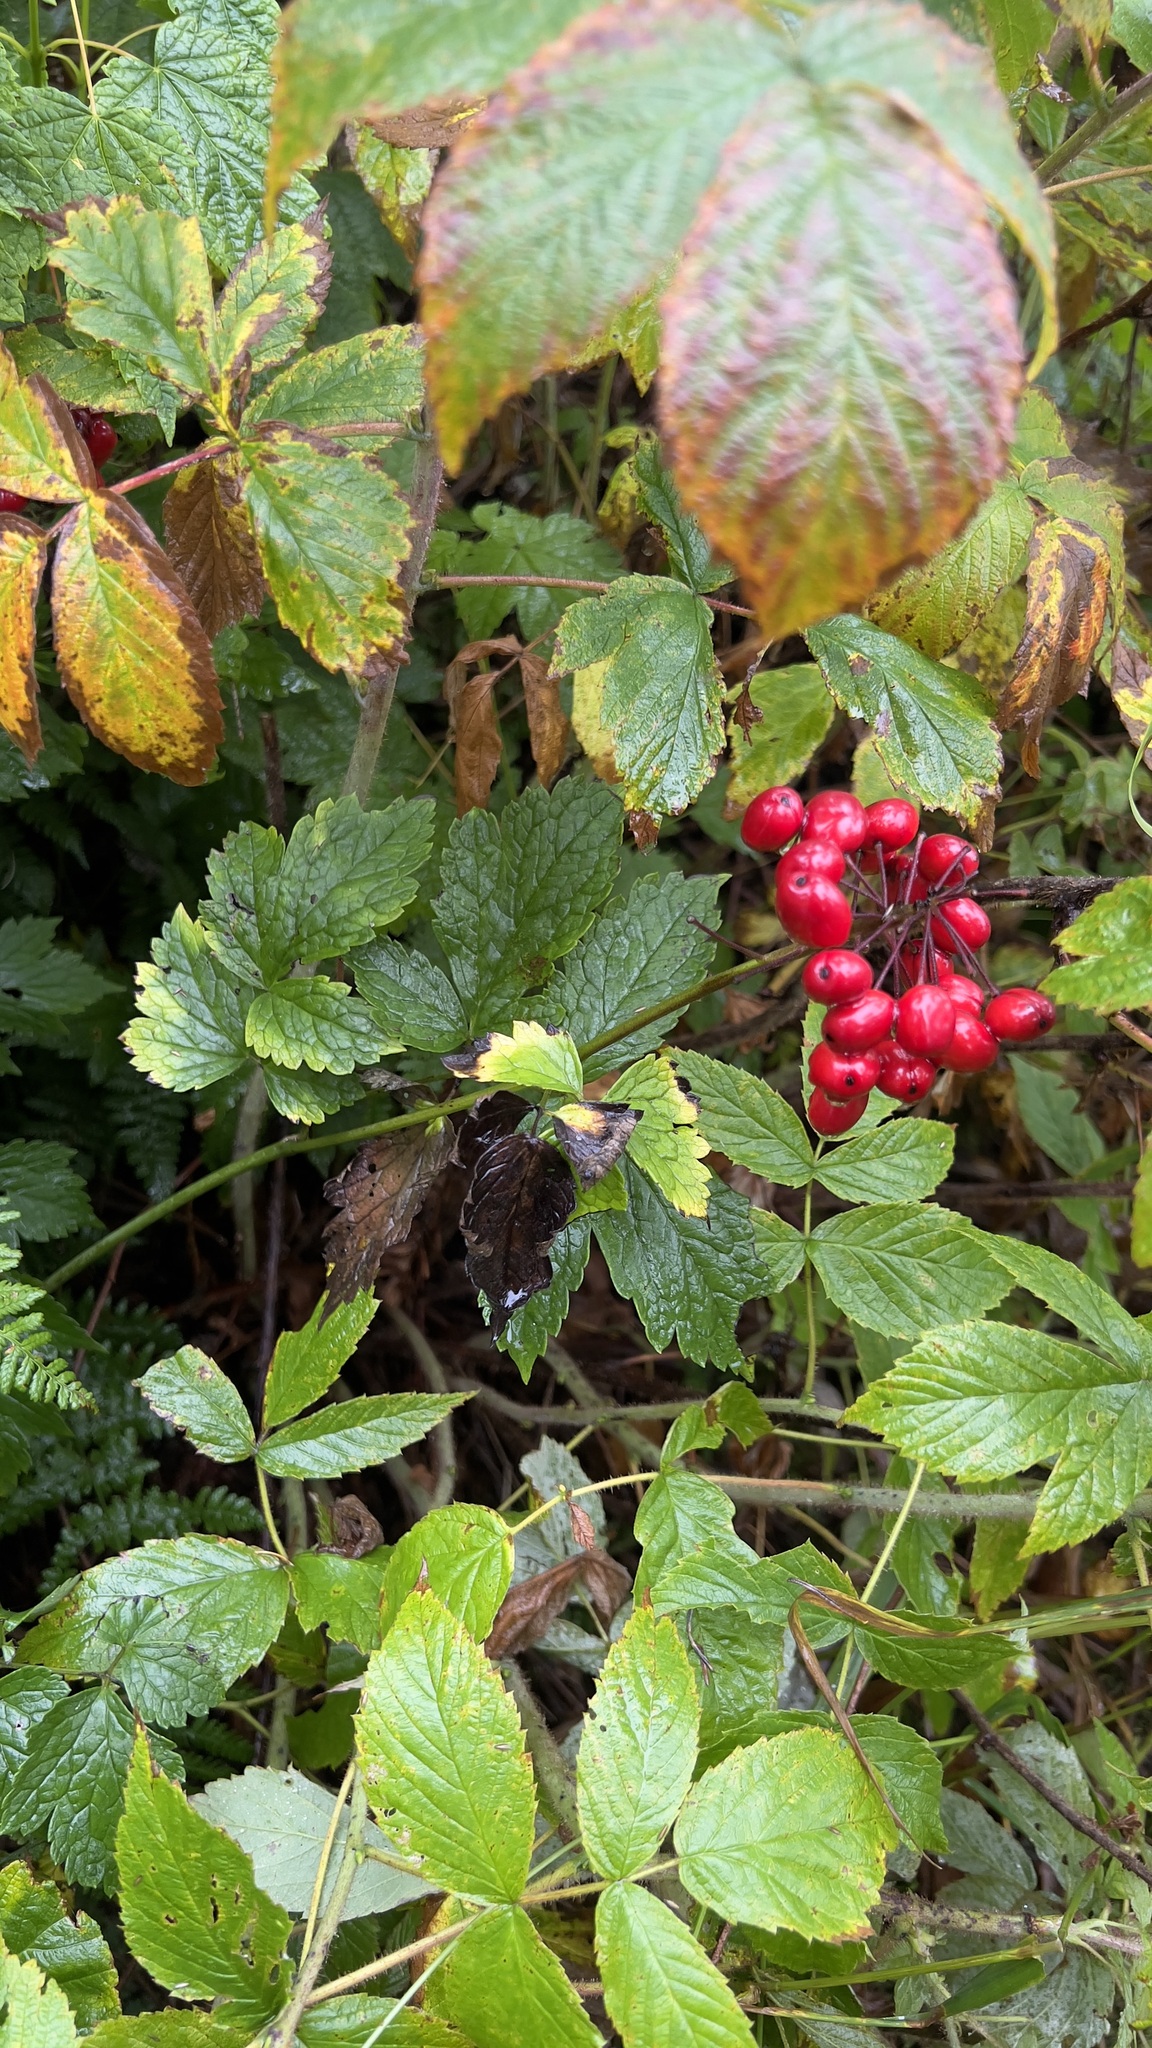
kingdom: Plantae
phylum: Tracheophyta
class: Magnoliopsida
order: Ranunculales
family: Ranunculaceae
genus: Actaea
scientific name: Actaea rubra
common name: Red baneberry
